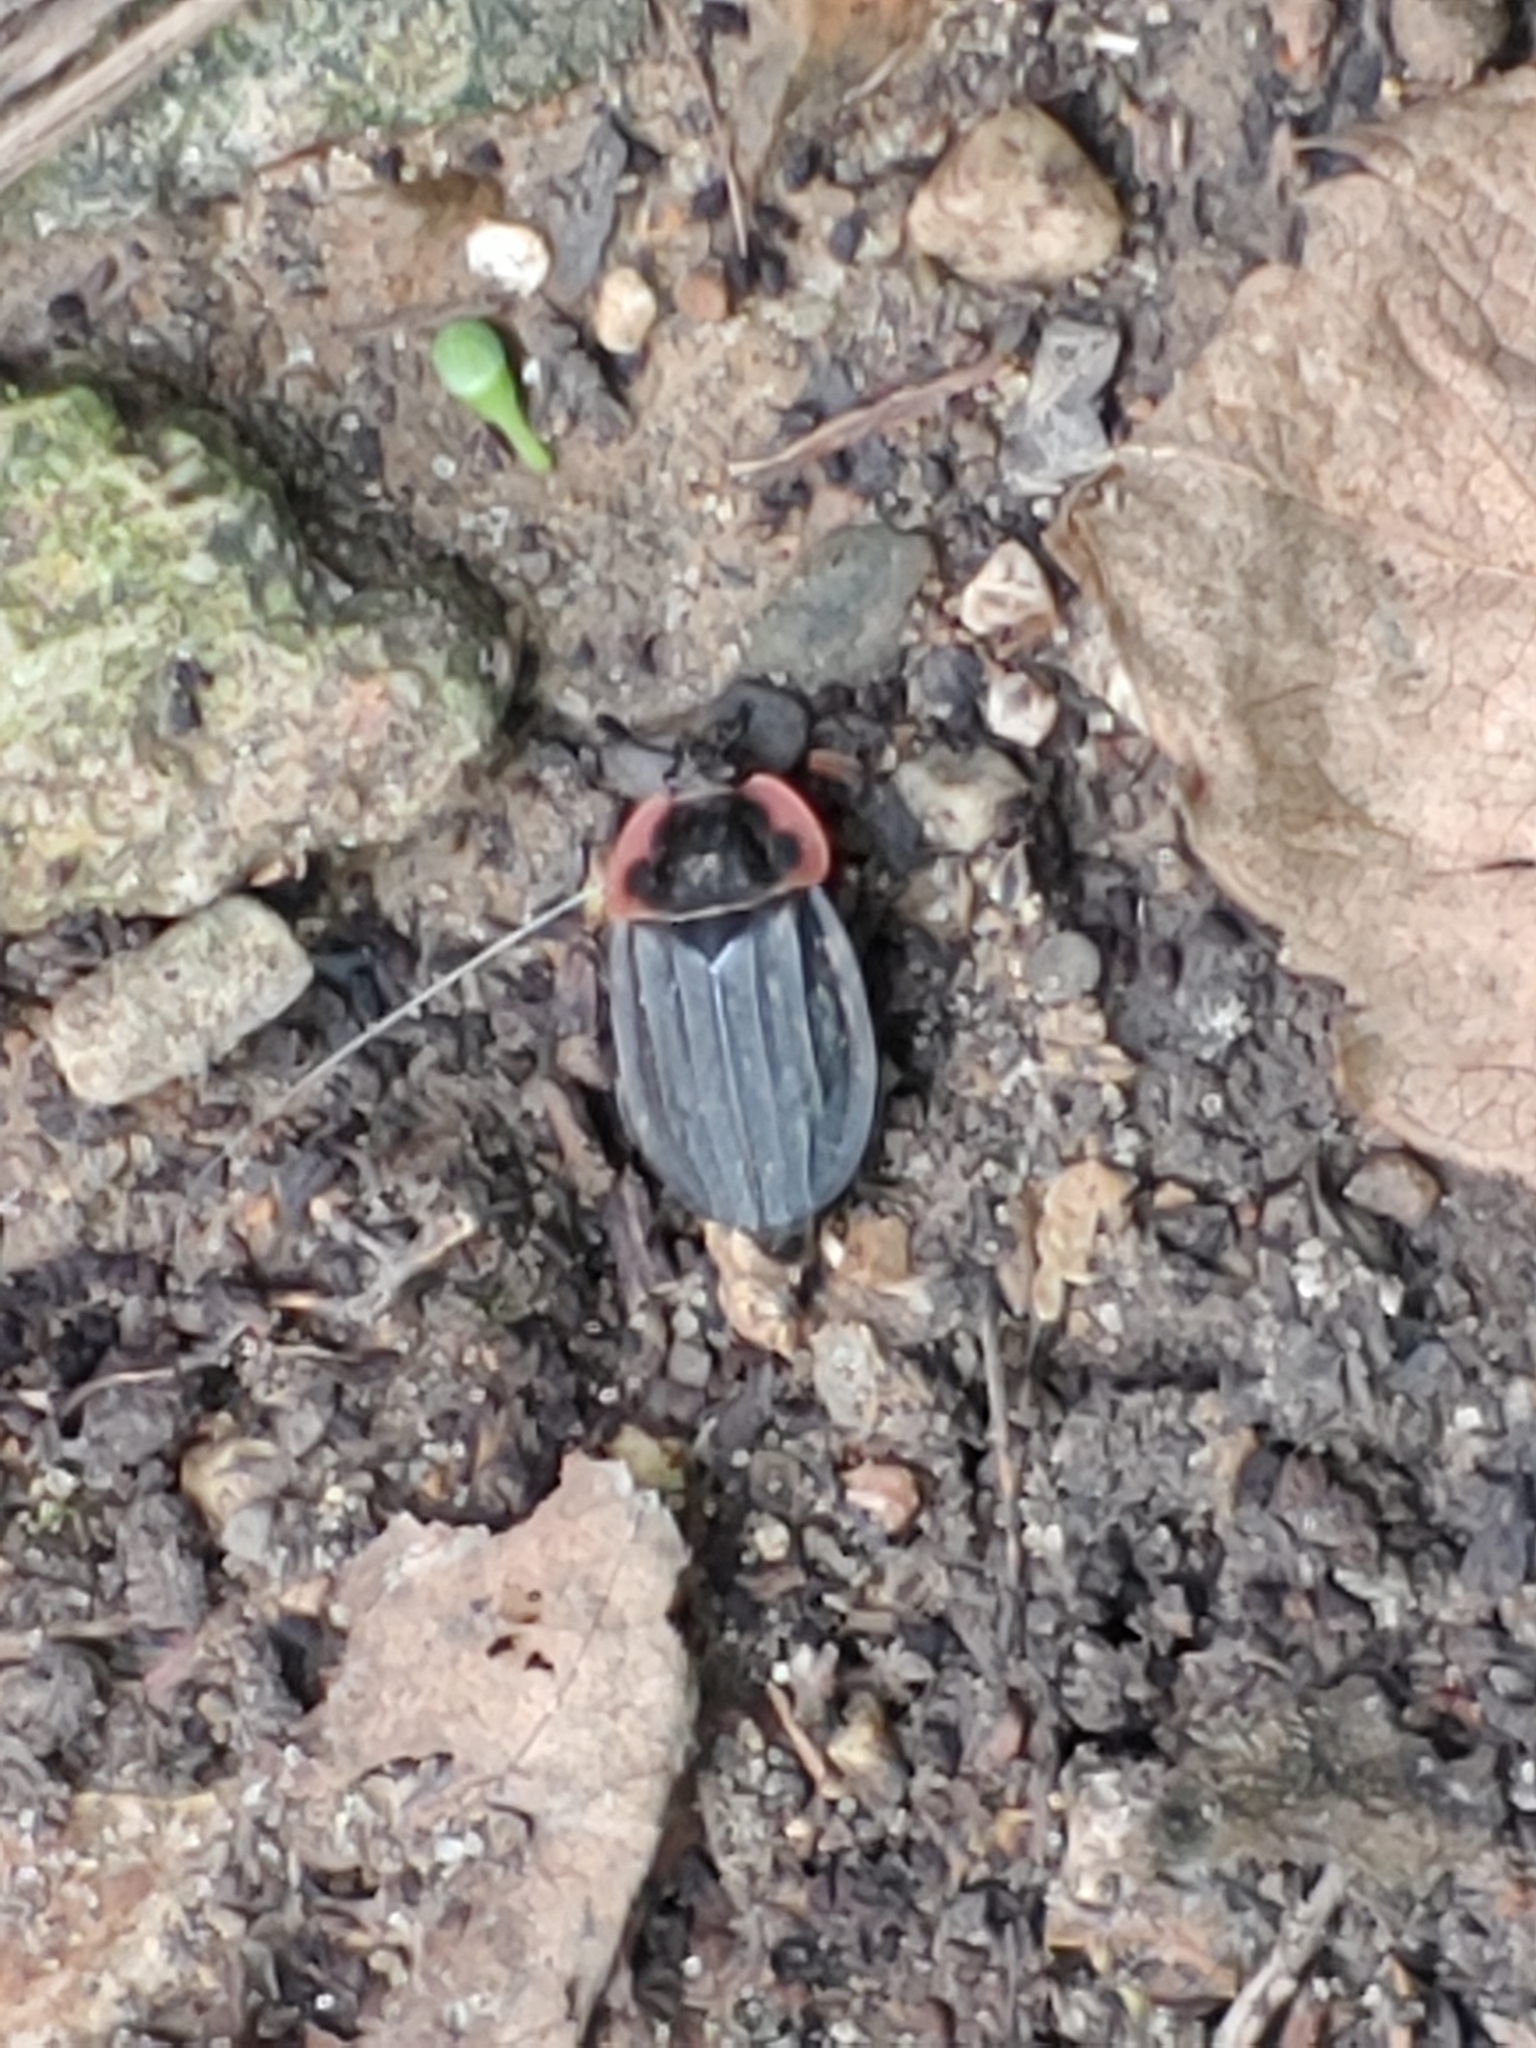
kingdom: Animalia
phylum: Arthropoda
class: Insecta
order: Coleoptera
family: Staphylinidae
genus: Oiceoptoma
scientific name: Oiceoptoma noveboracense
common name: Margined carrion beetle
